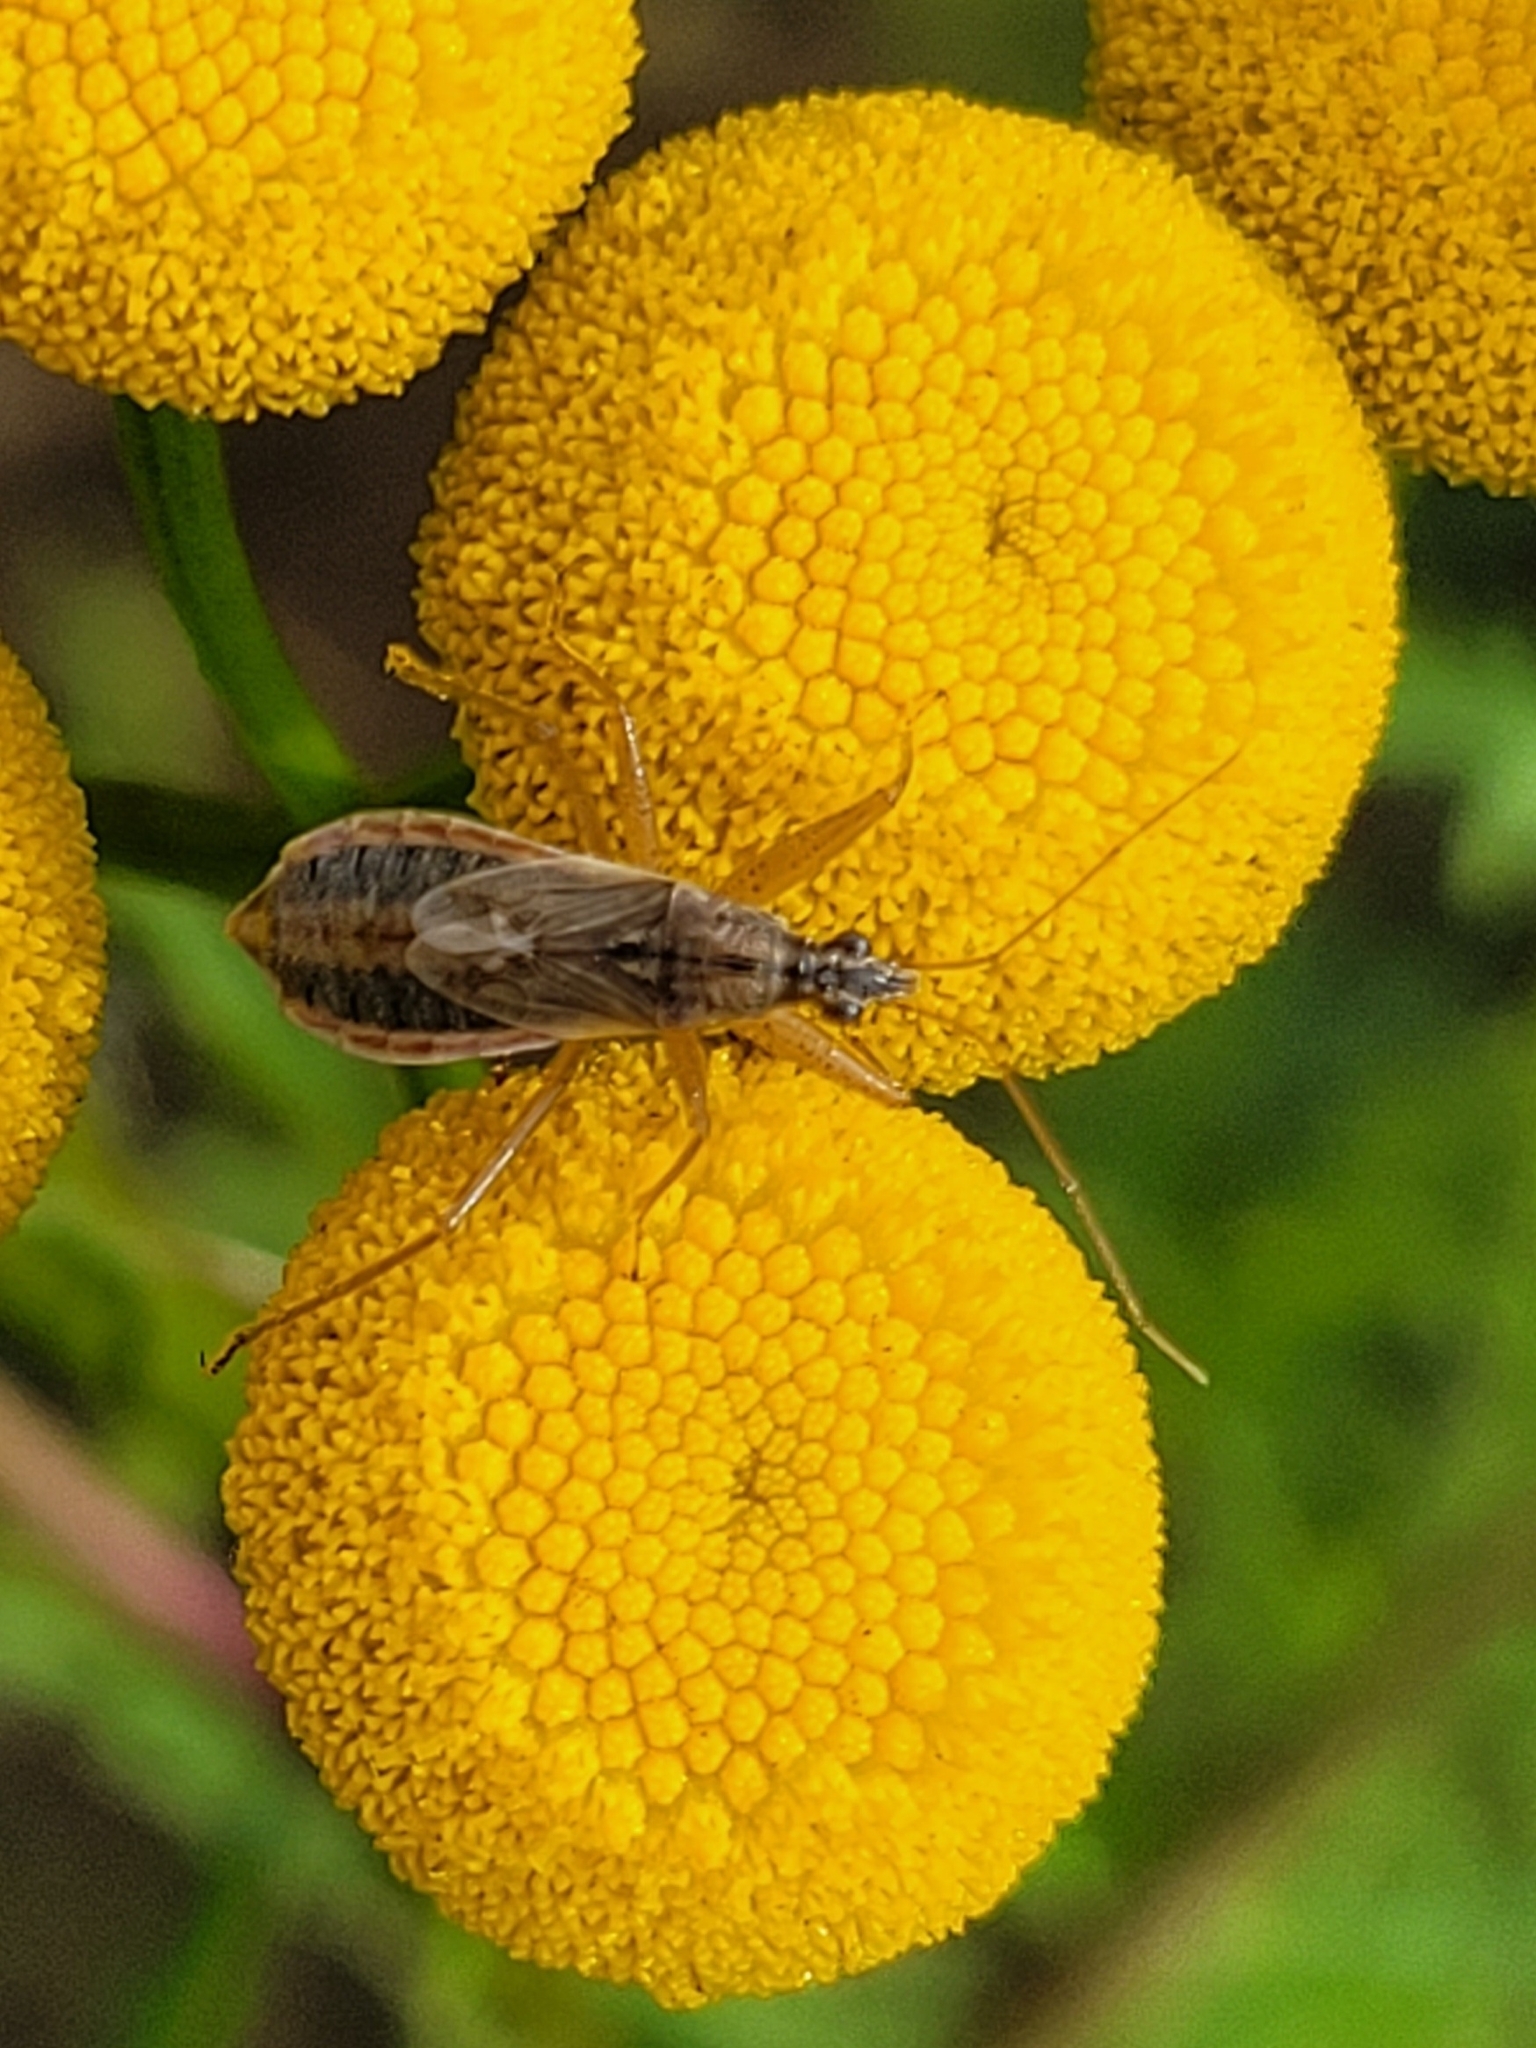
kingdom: Animalia
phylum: Arthropoda
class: Insecta
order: Hemiptera
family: Nabidae
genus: Nabis
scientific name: Nabis flavomarginatus
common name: Broad damselbug
